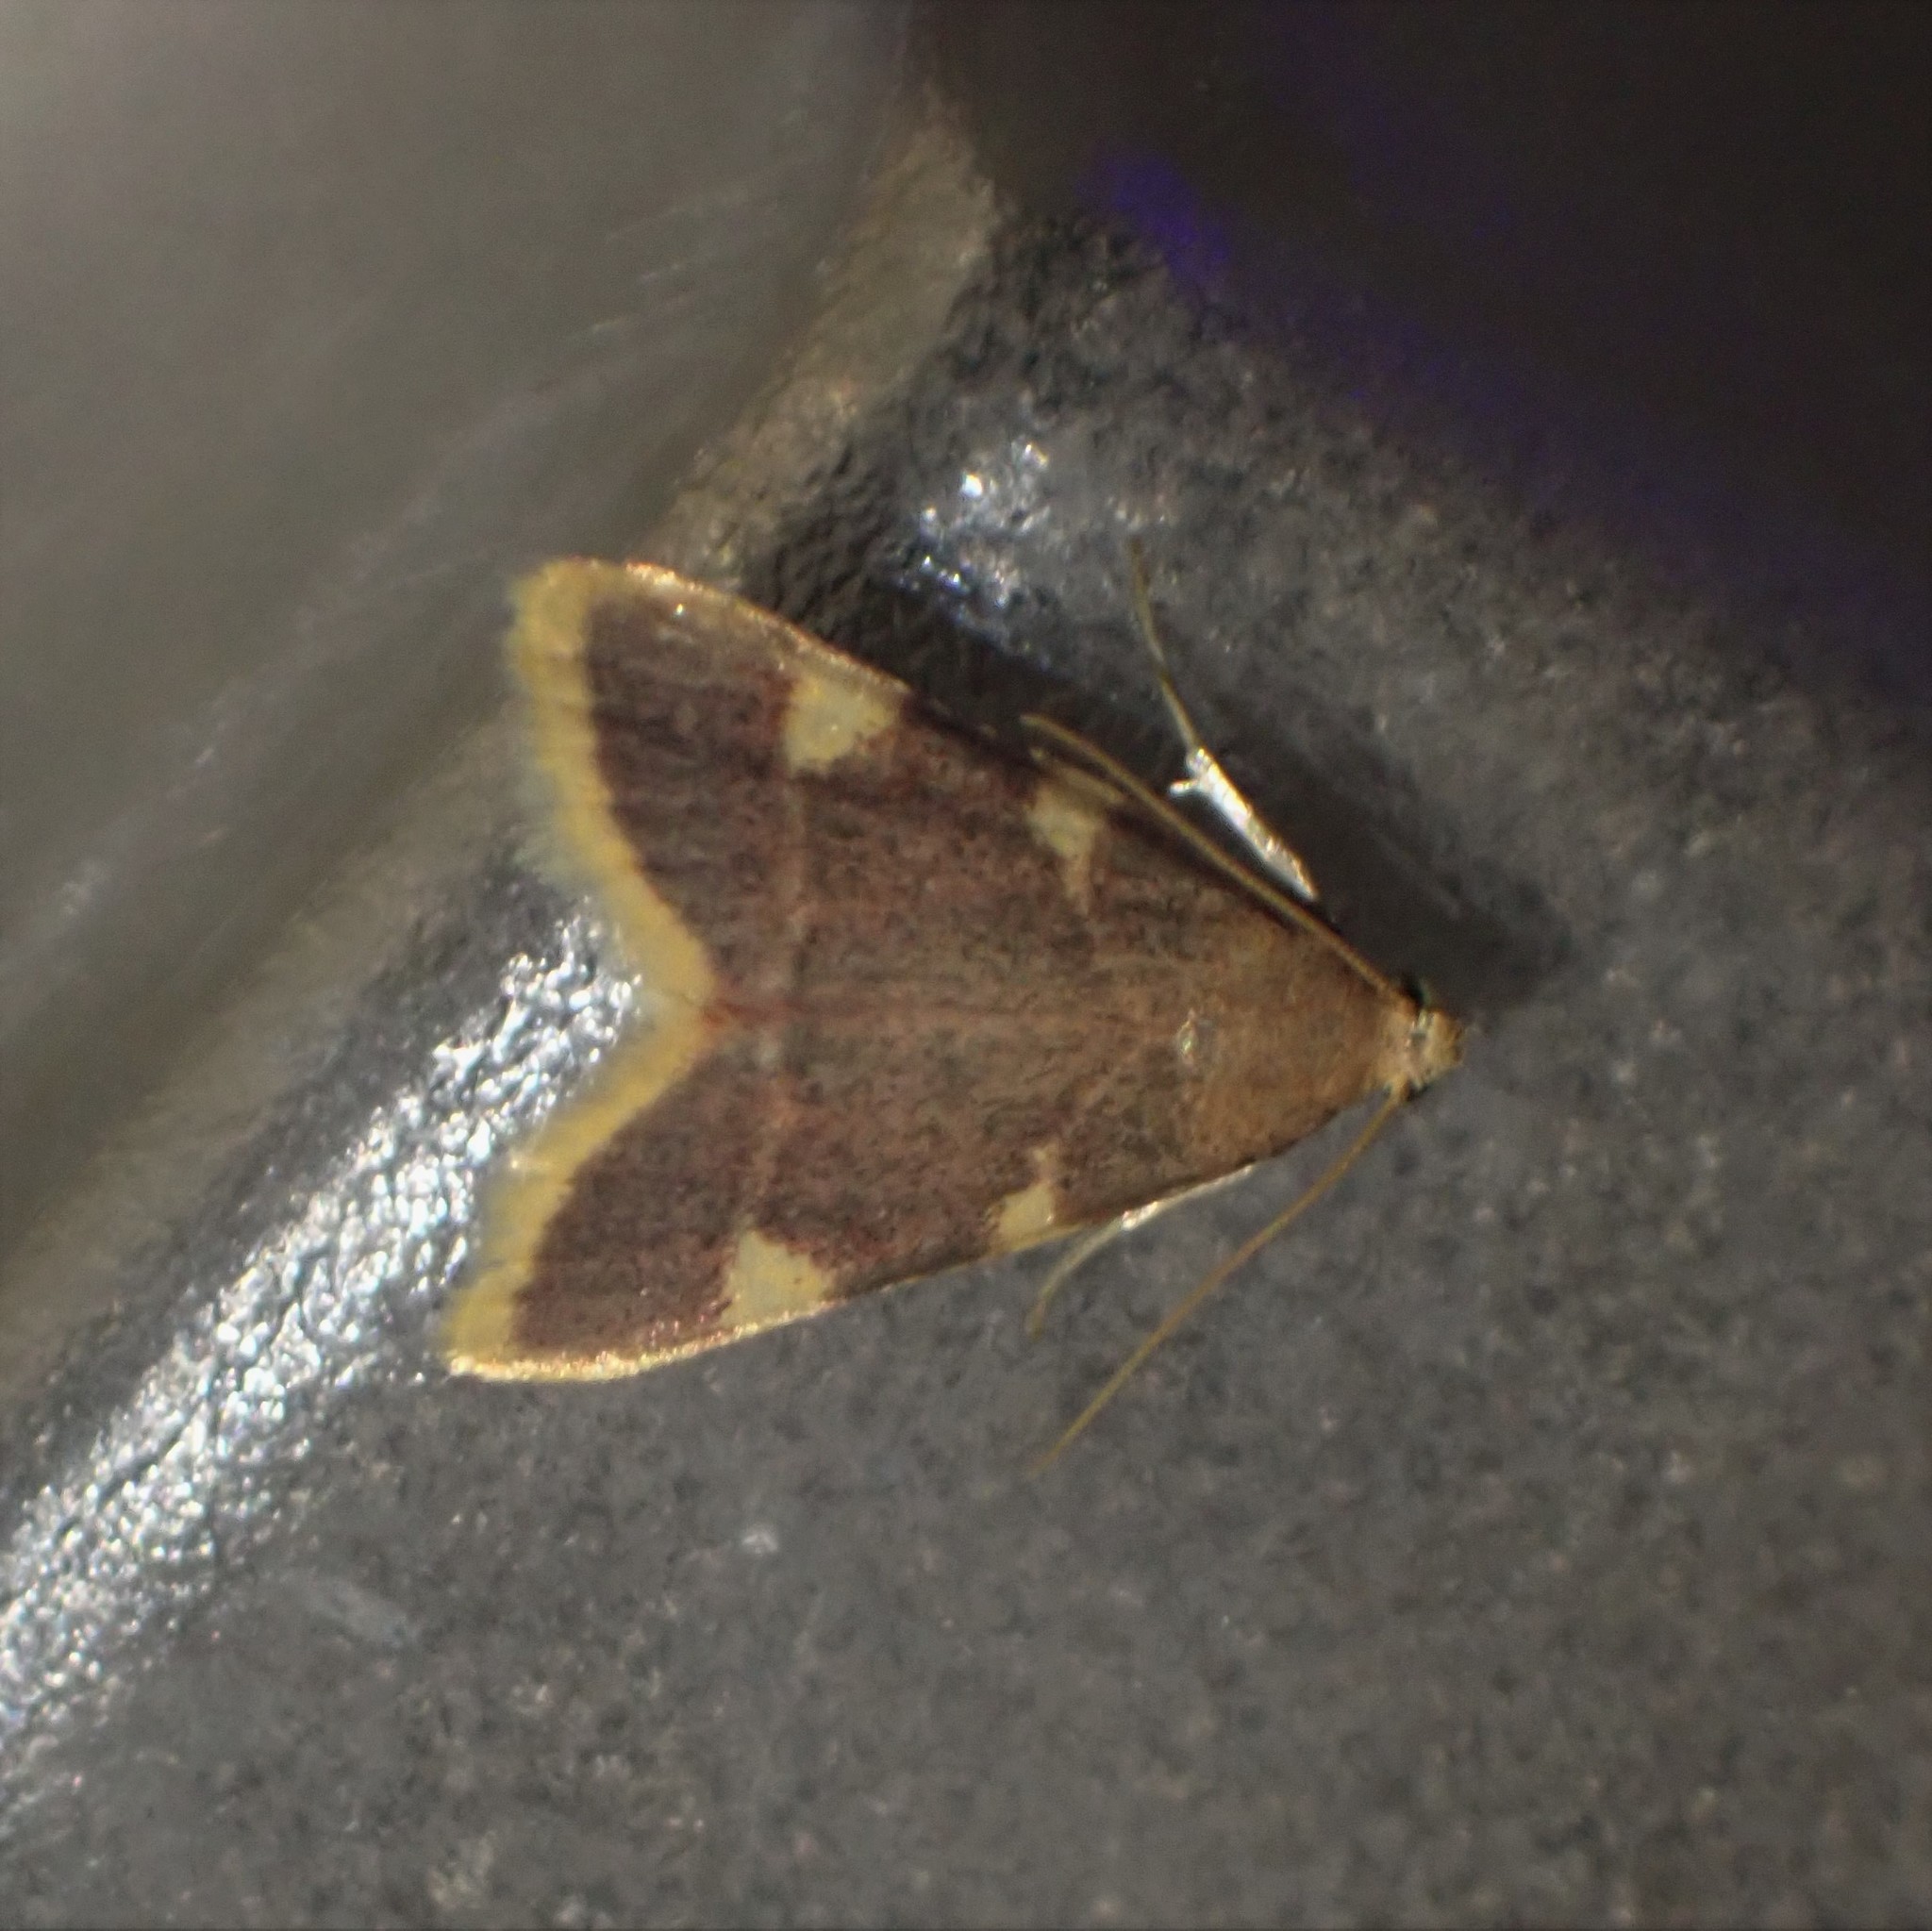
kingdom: Animalia
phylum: Arthropoda
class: Insecta
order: Lepidoptera
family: Pyralidae
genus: Hypsopygia
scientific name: Hypsopygia costalis
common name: Gold triangle
